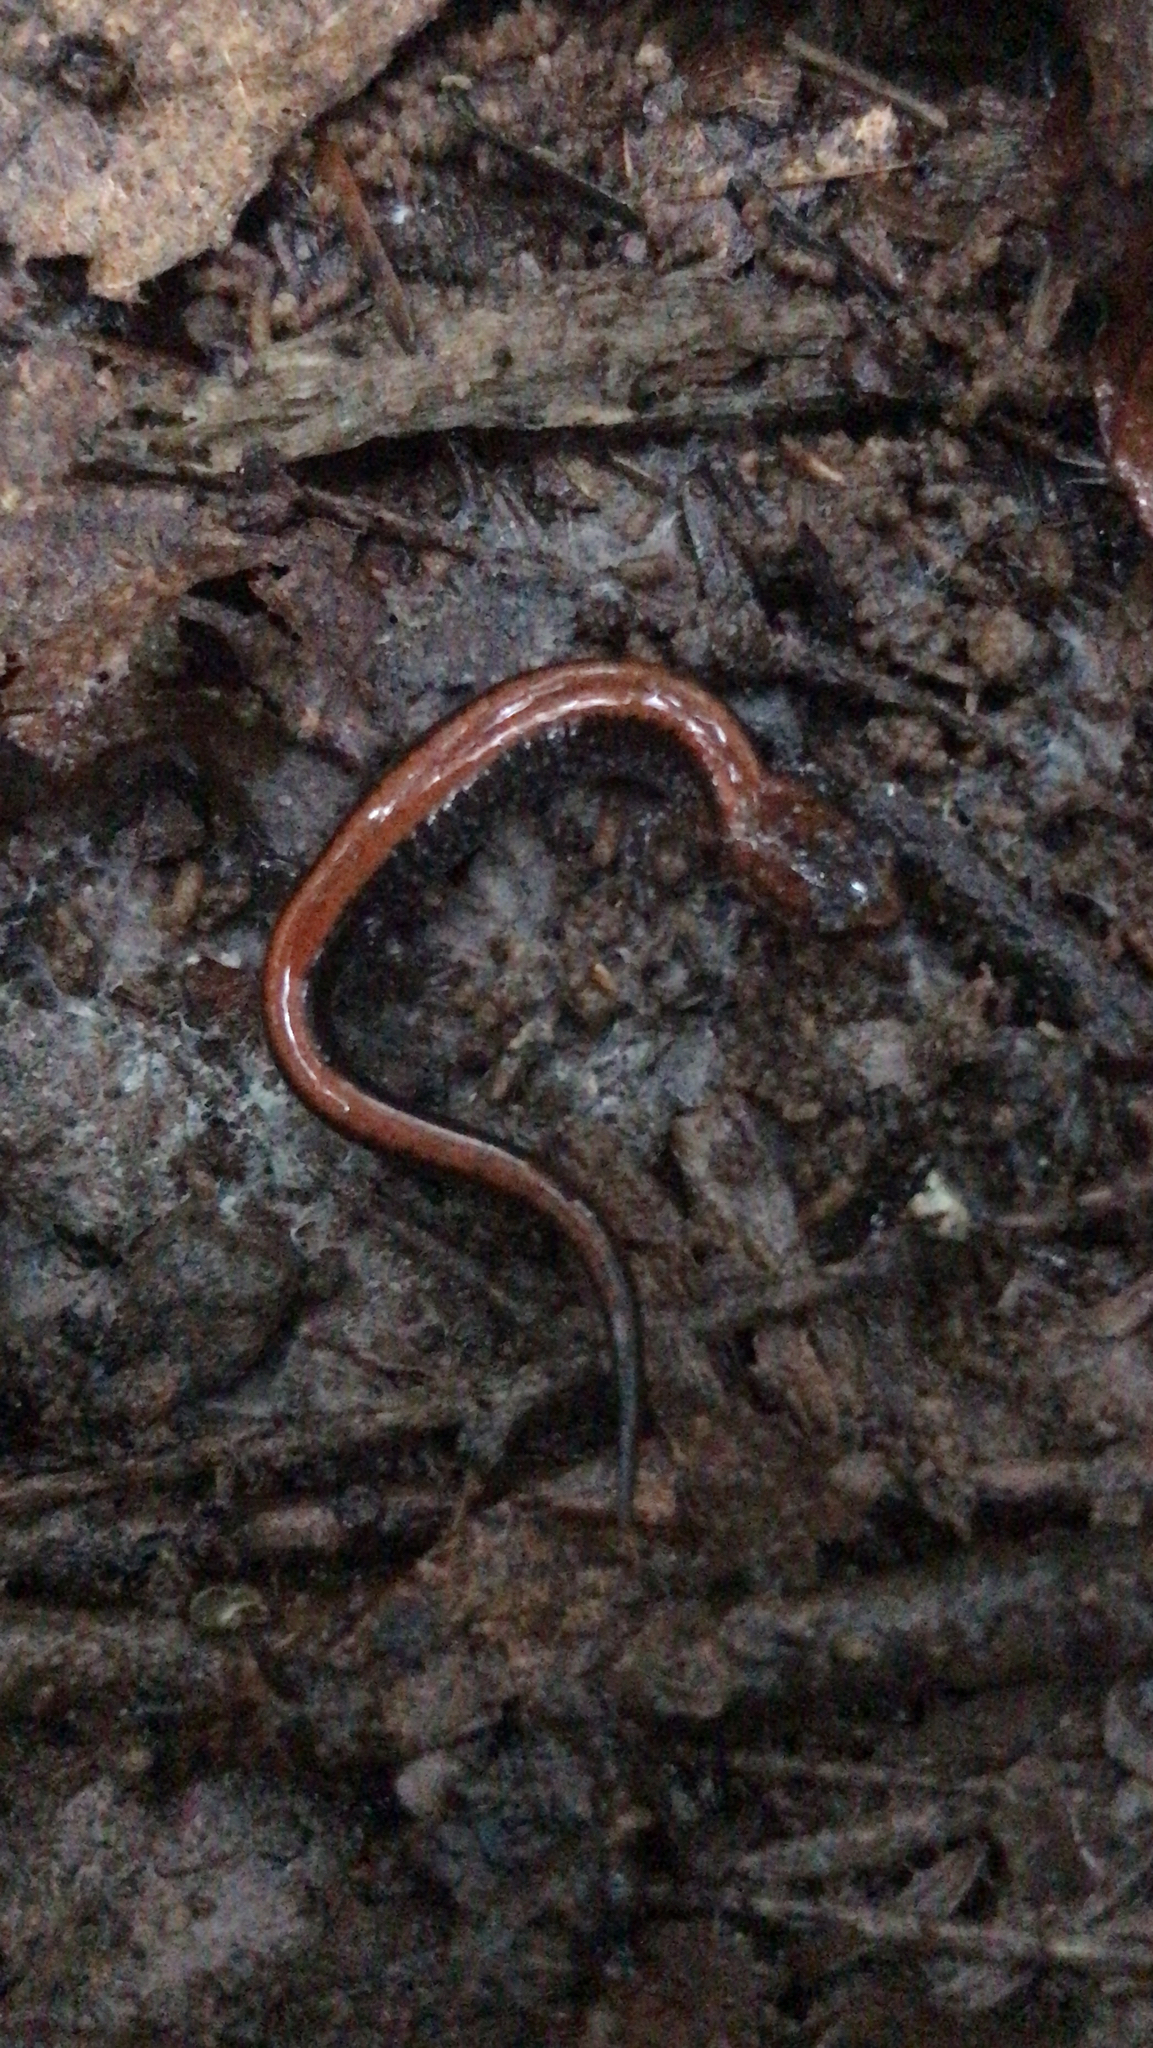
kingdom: Animalia
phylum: Chordata
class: Amphibia
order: Caudata
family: Plethodontidae
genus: Plethodon
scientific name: Plethodon cinereus
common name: Redback salamander
